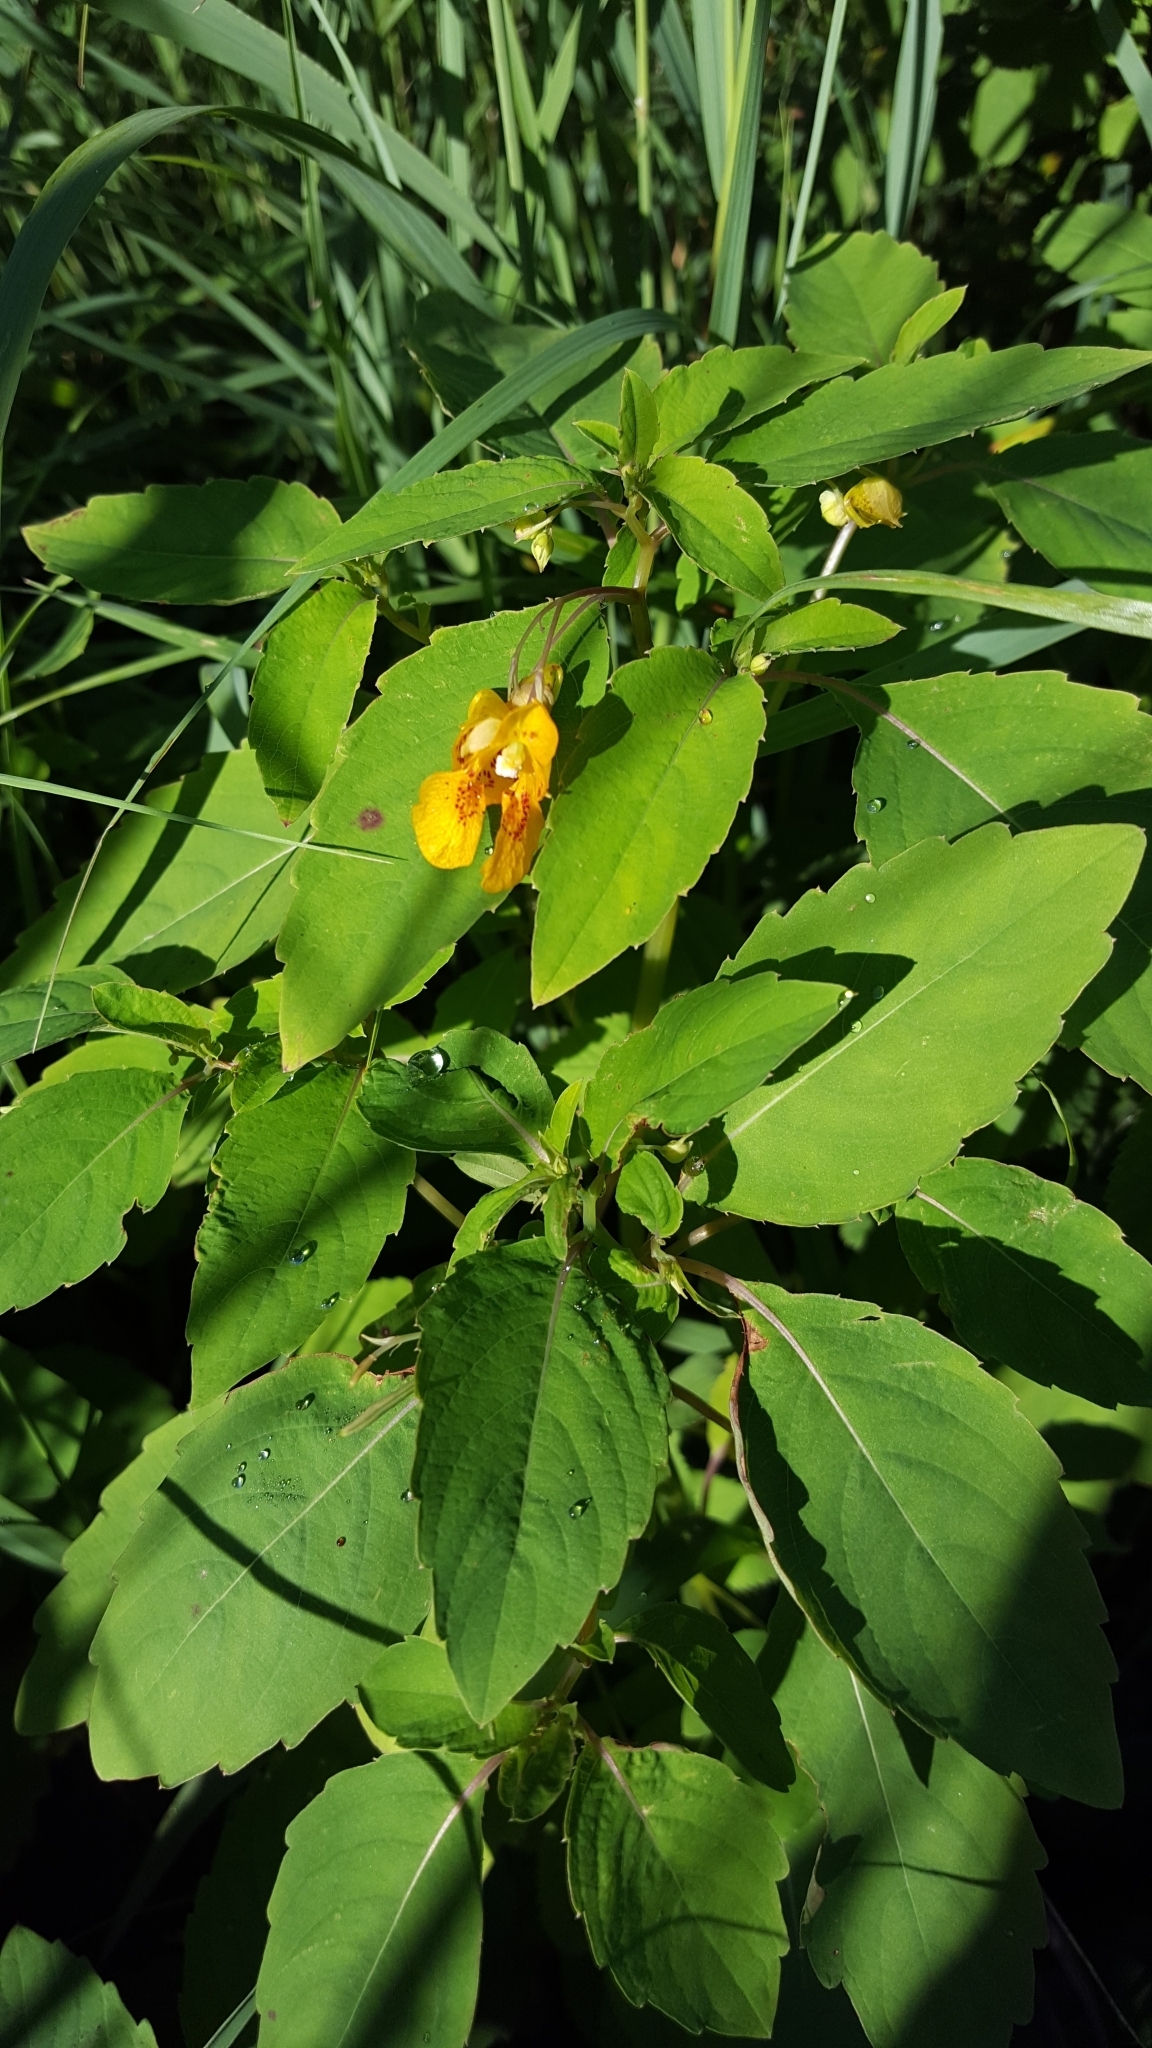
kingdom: Plantae
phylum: Tracheophyta
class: Magnoliopsida
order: Ericales
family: Balsaminaceae
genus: Impatiens
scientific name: Impatiens capensis
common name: Orange balsam
